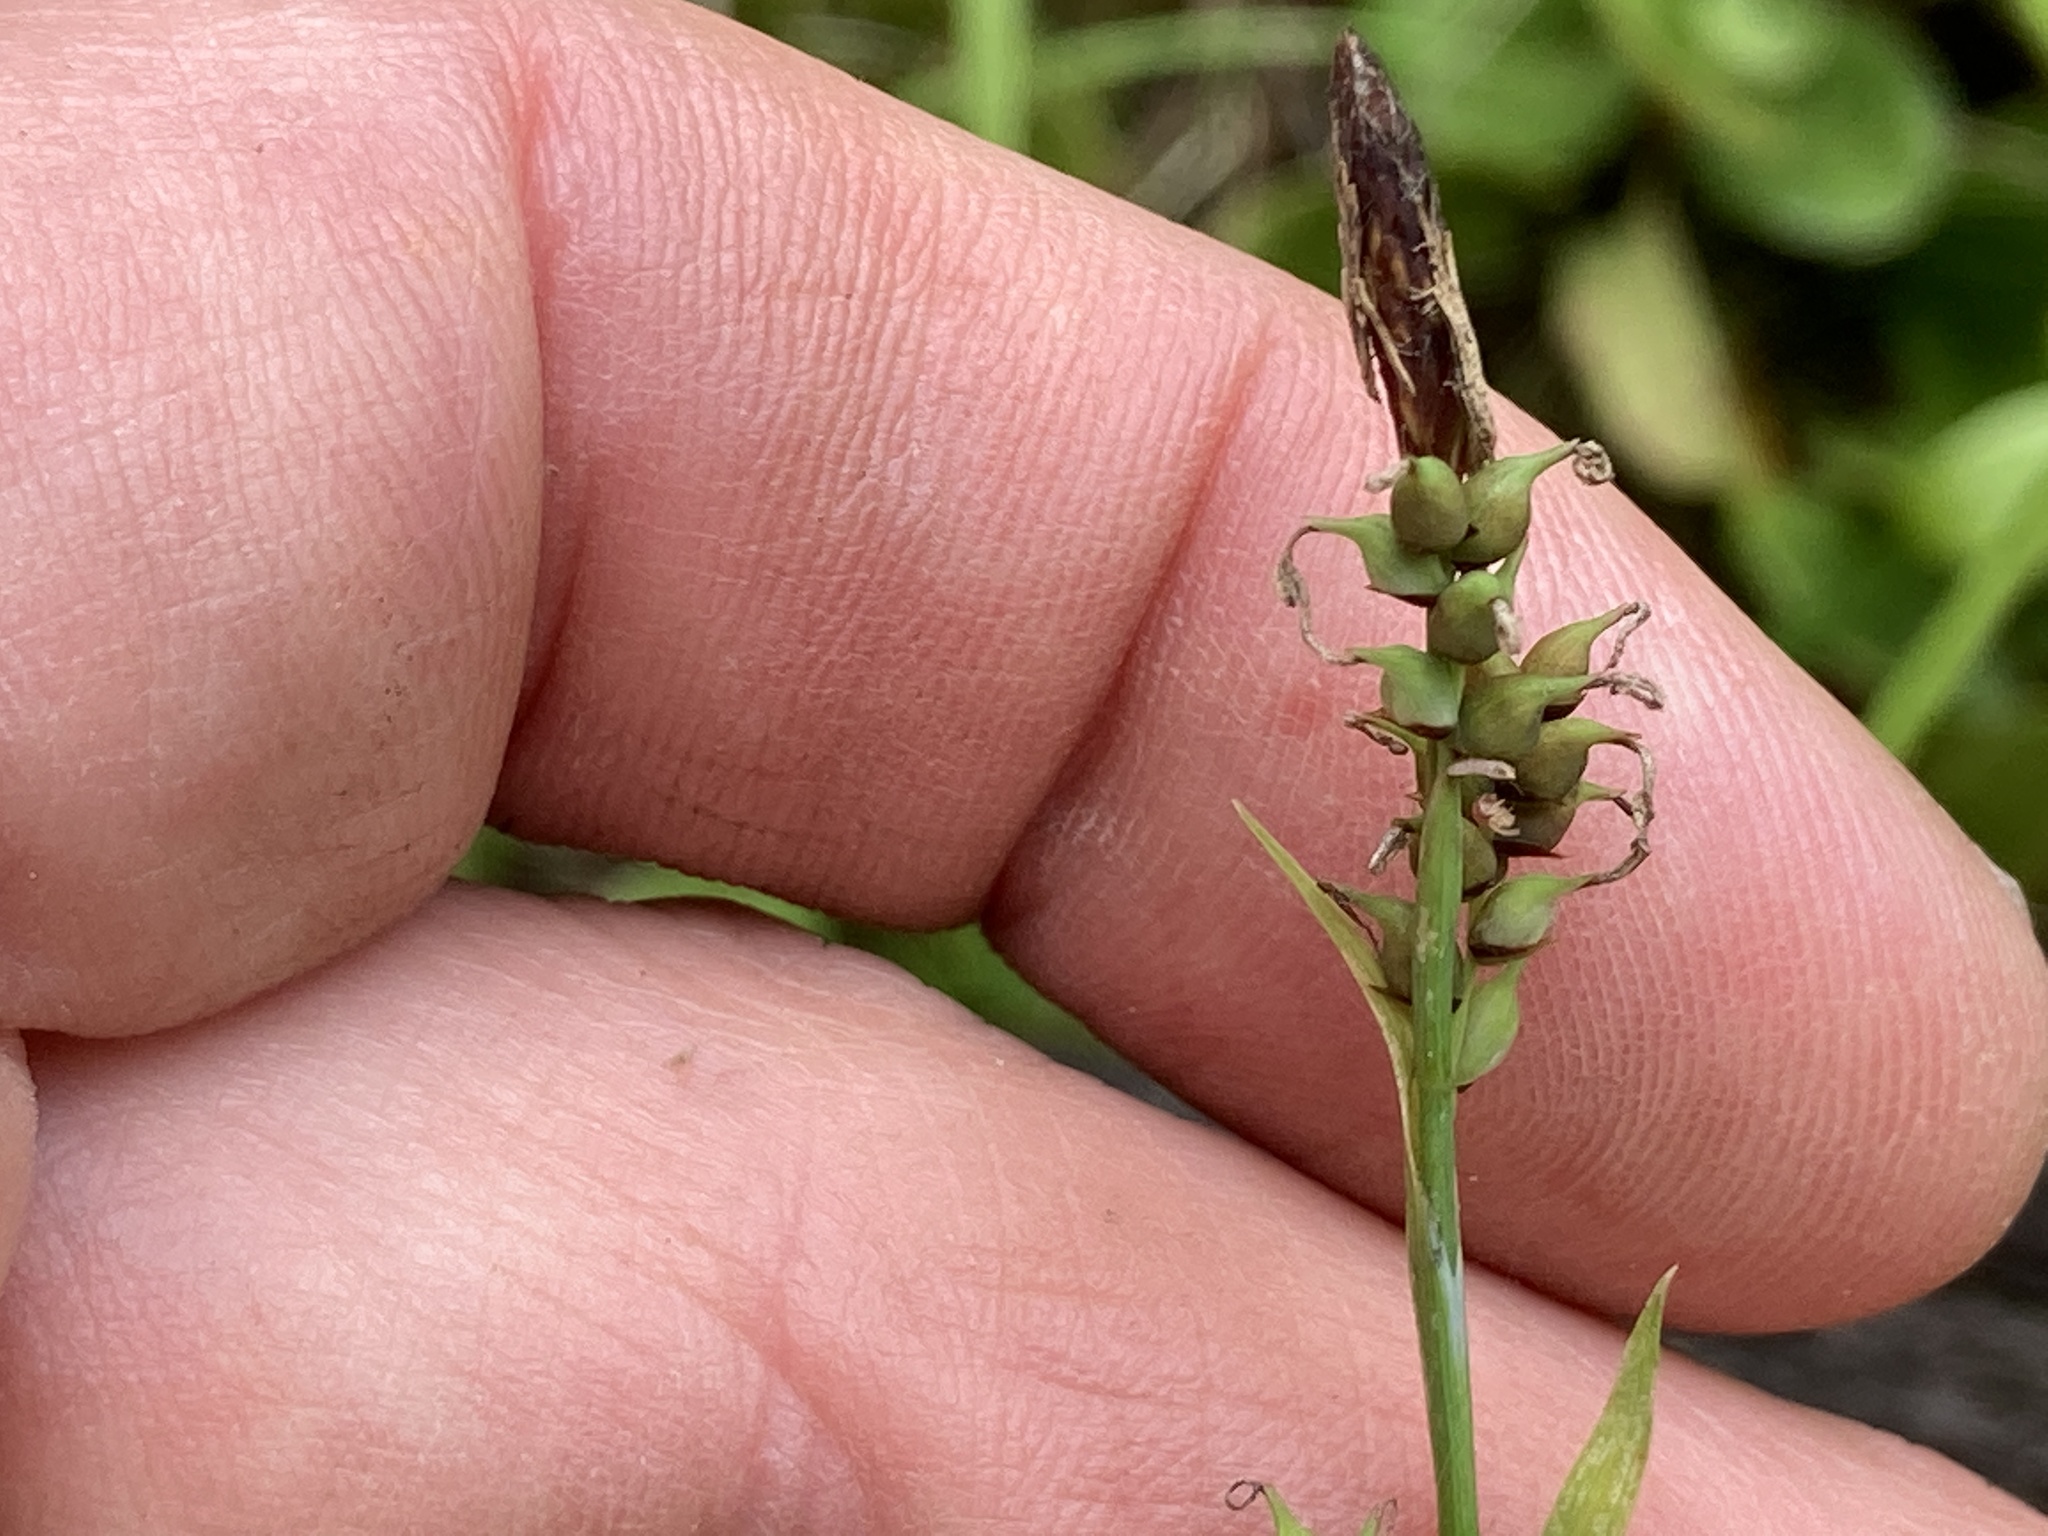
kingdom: Plantae
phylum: Tracheophyta
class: Liliopsida
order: Poales
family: Cyperaceae
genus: Carex
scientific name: Carex vaginata
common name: Sheathed sedge
